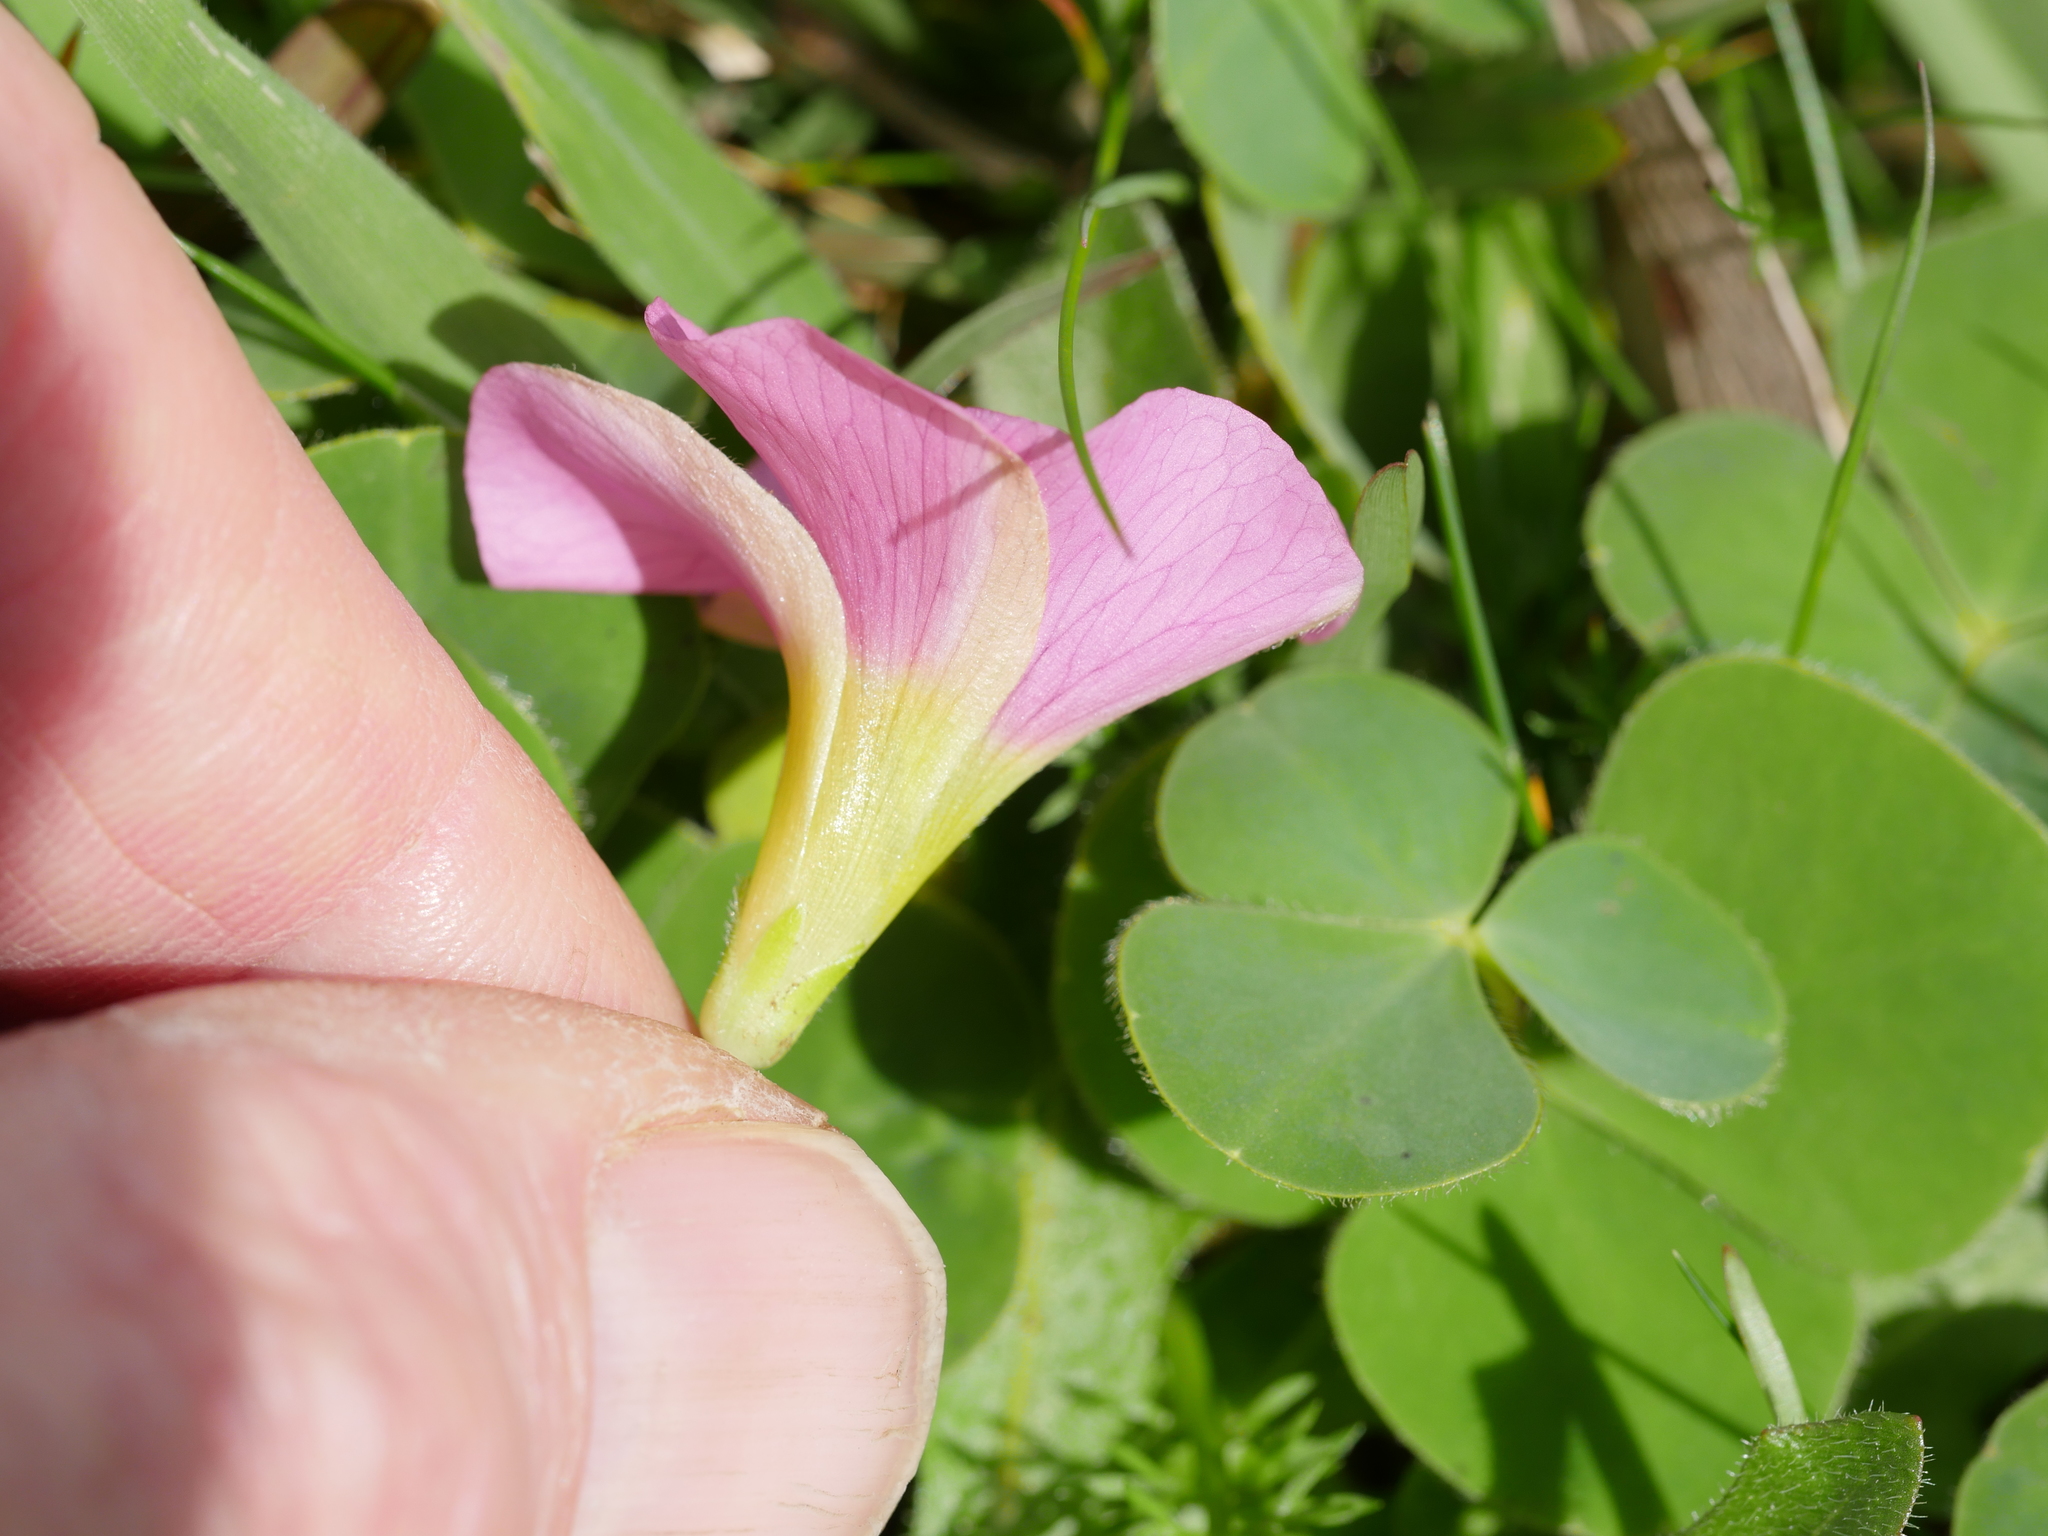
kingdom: Plantae
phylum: Tracheophyta
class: Magnoliopsida
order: Oxalidales
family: Oxalidaceae
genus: Oxalis
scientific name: Oxalis purpurea
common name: Purple woodsorrel
